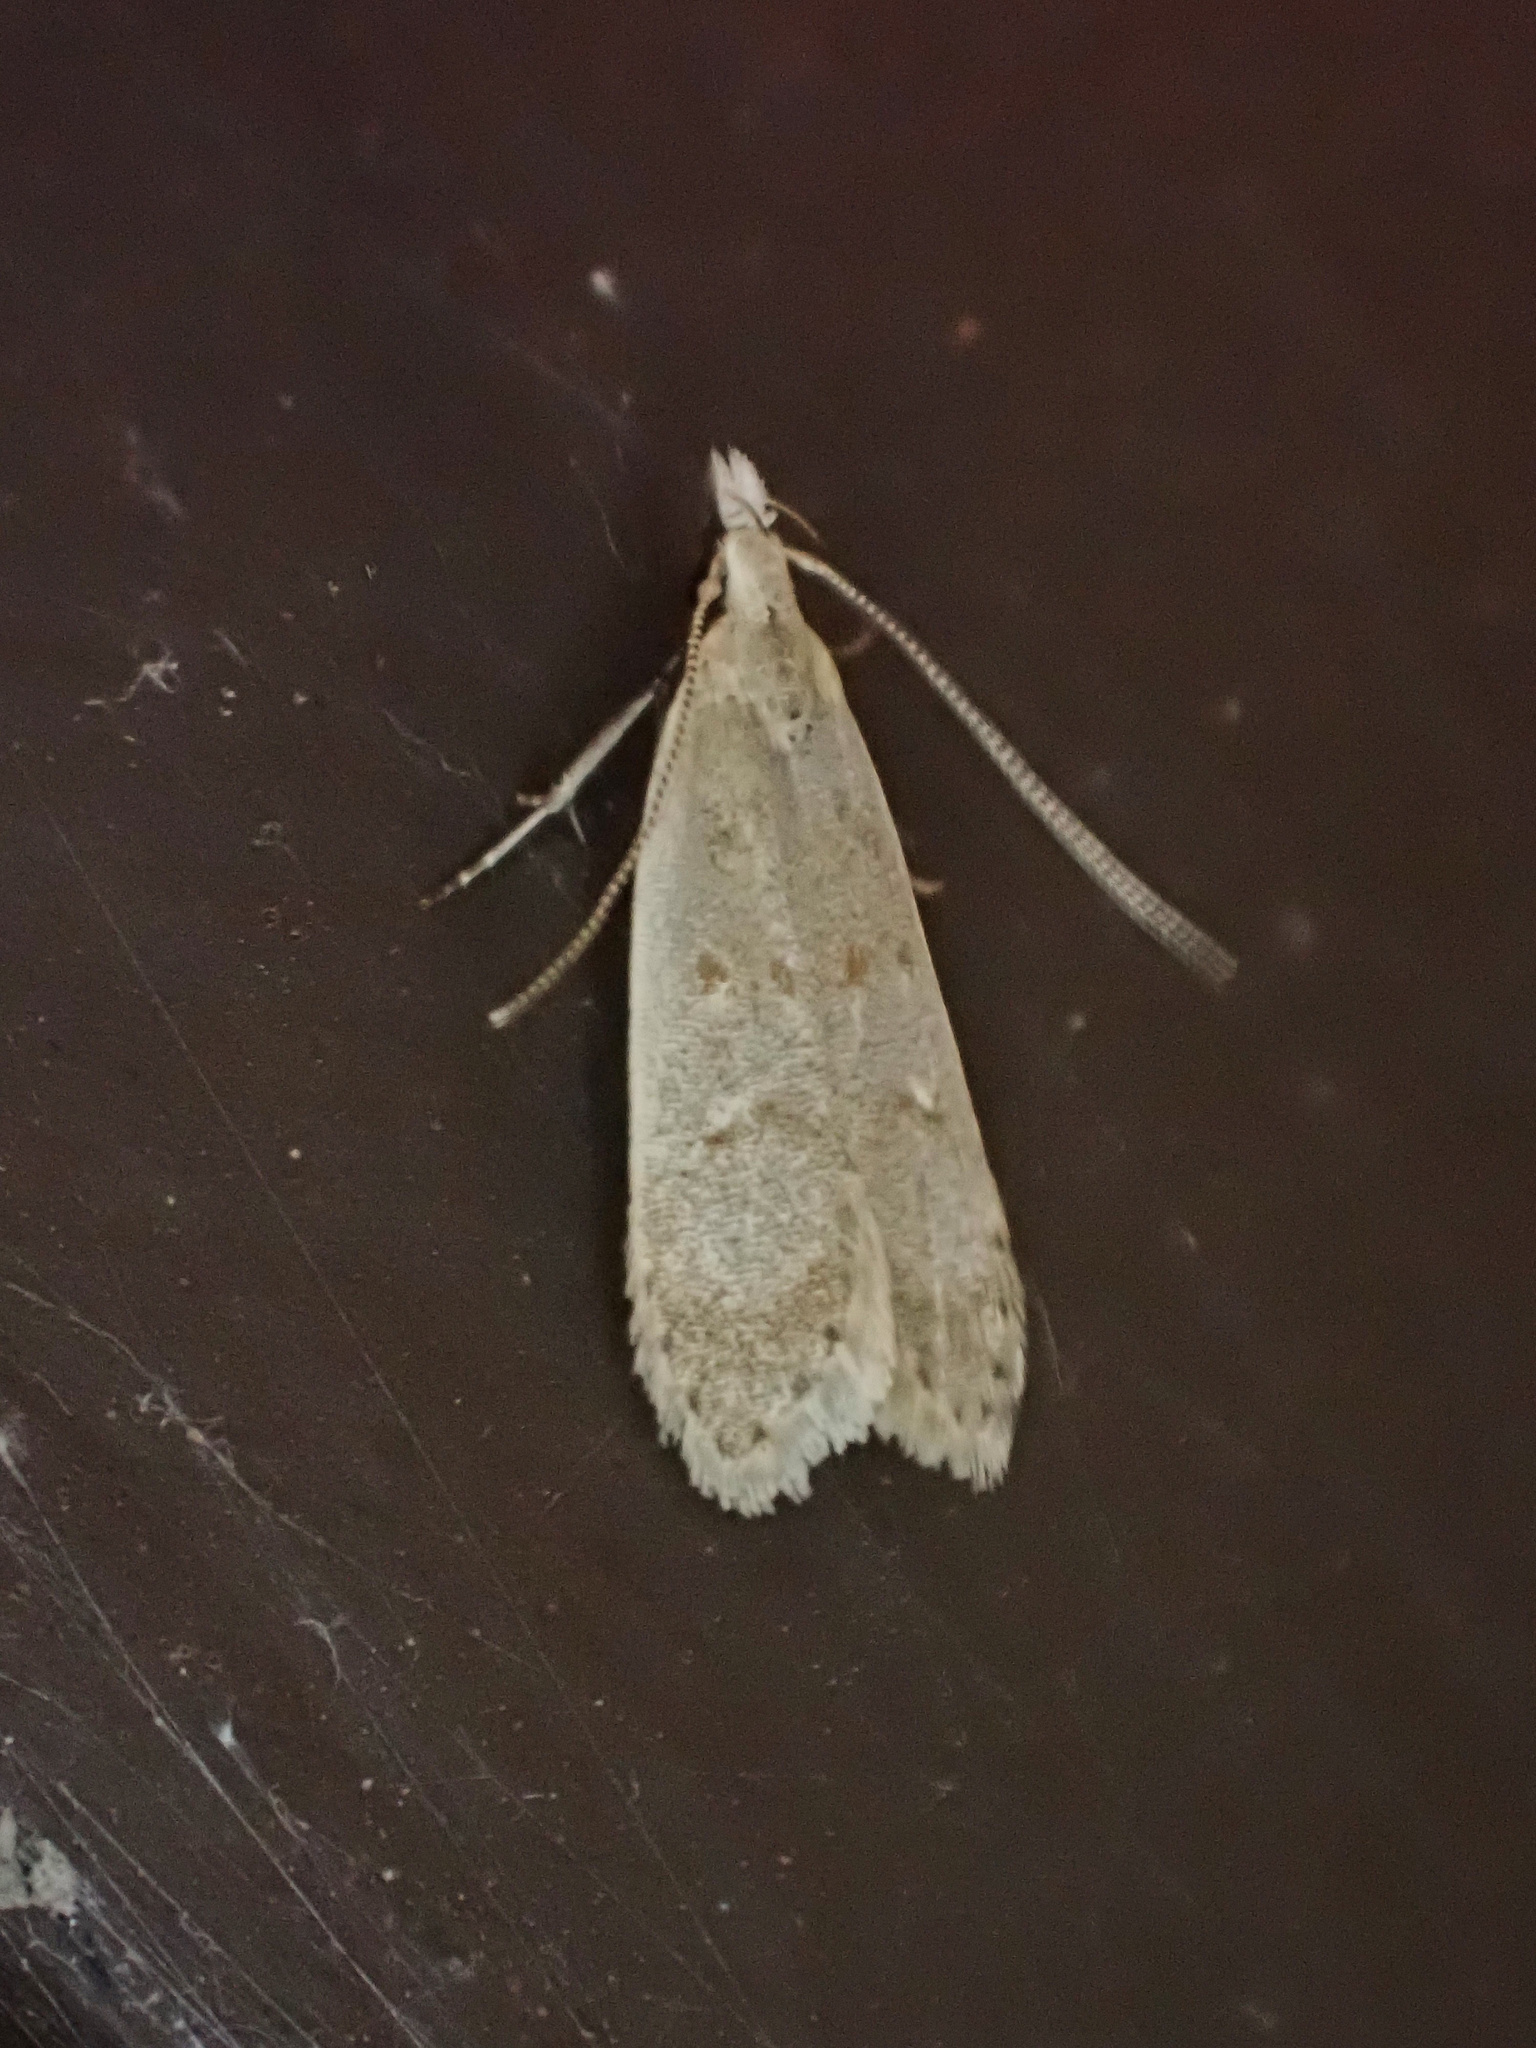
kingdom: Animalia
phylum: Arthropoda
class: Insecta
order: Lepidoptera
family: Gelechiidae
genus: Dichomeris
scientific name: Dichomeris punctidiscellus
